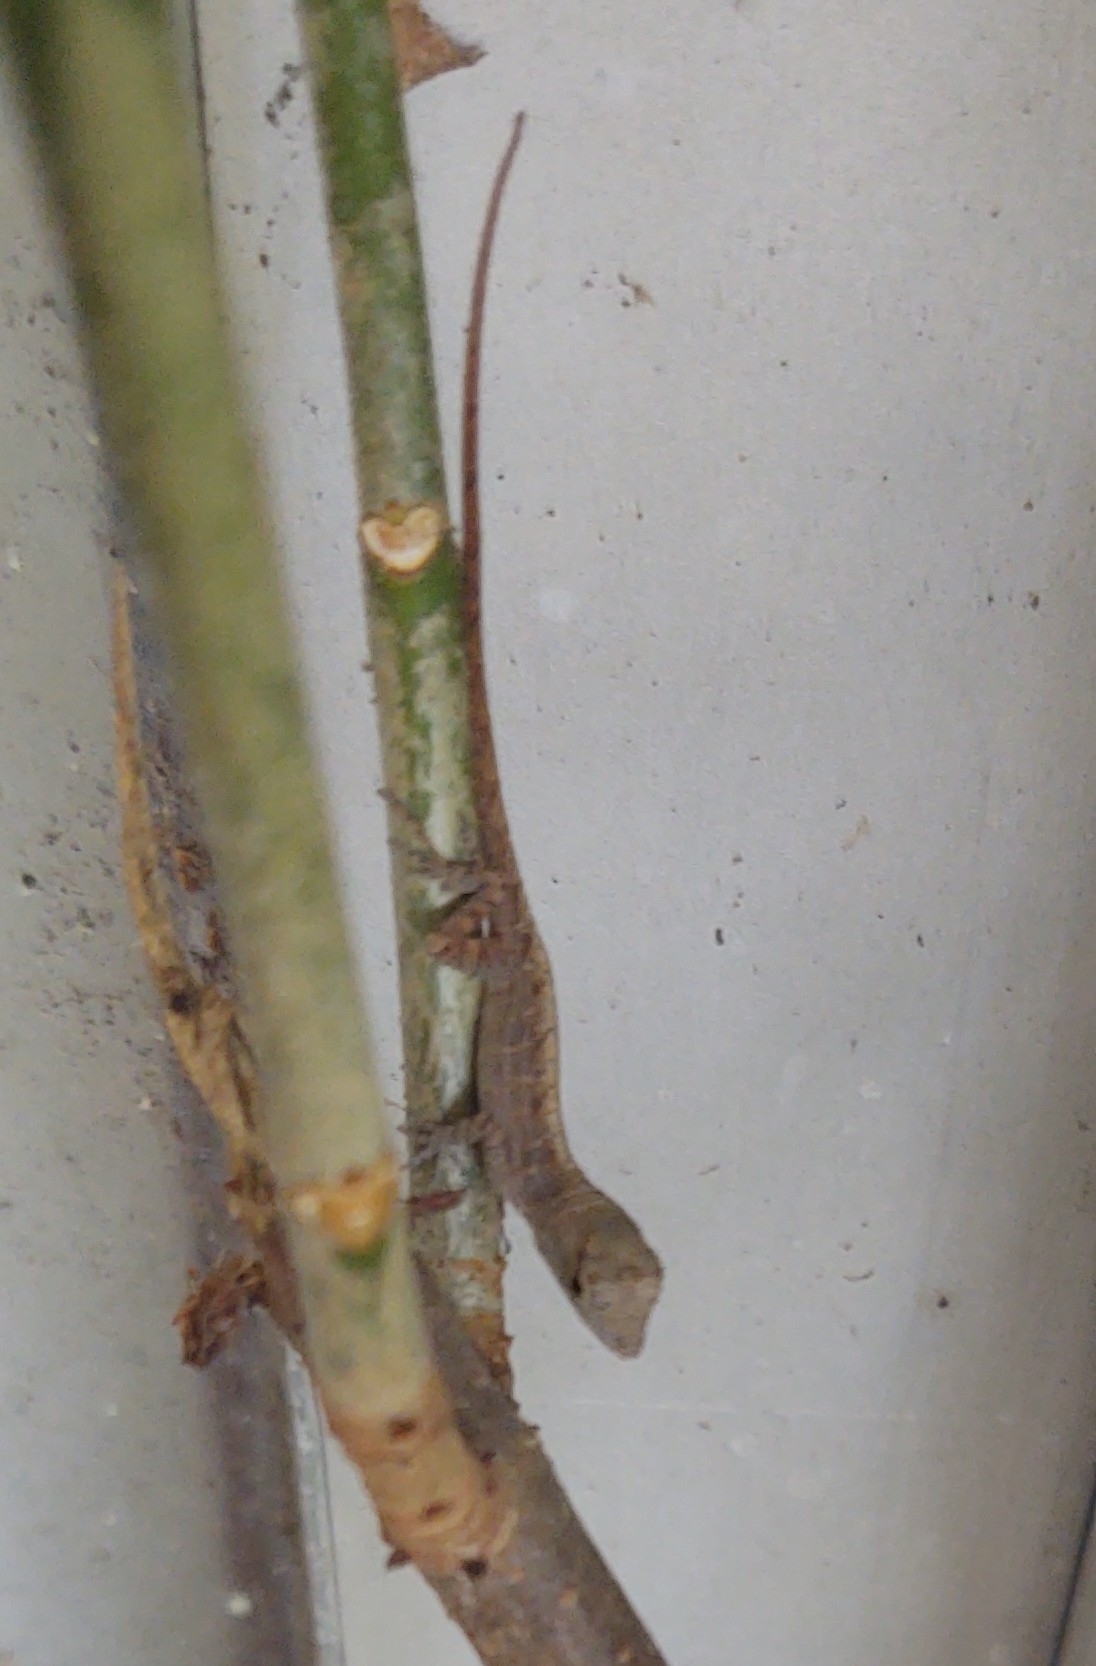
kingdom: Animalia
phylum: Chordata
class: Squamata
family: Dactyloidae
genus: Anolis
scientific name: Anolis sagrei
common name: Brown anole
